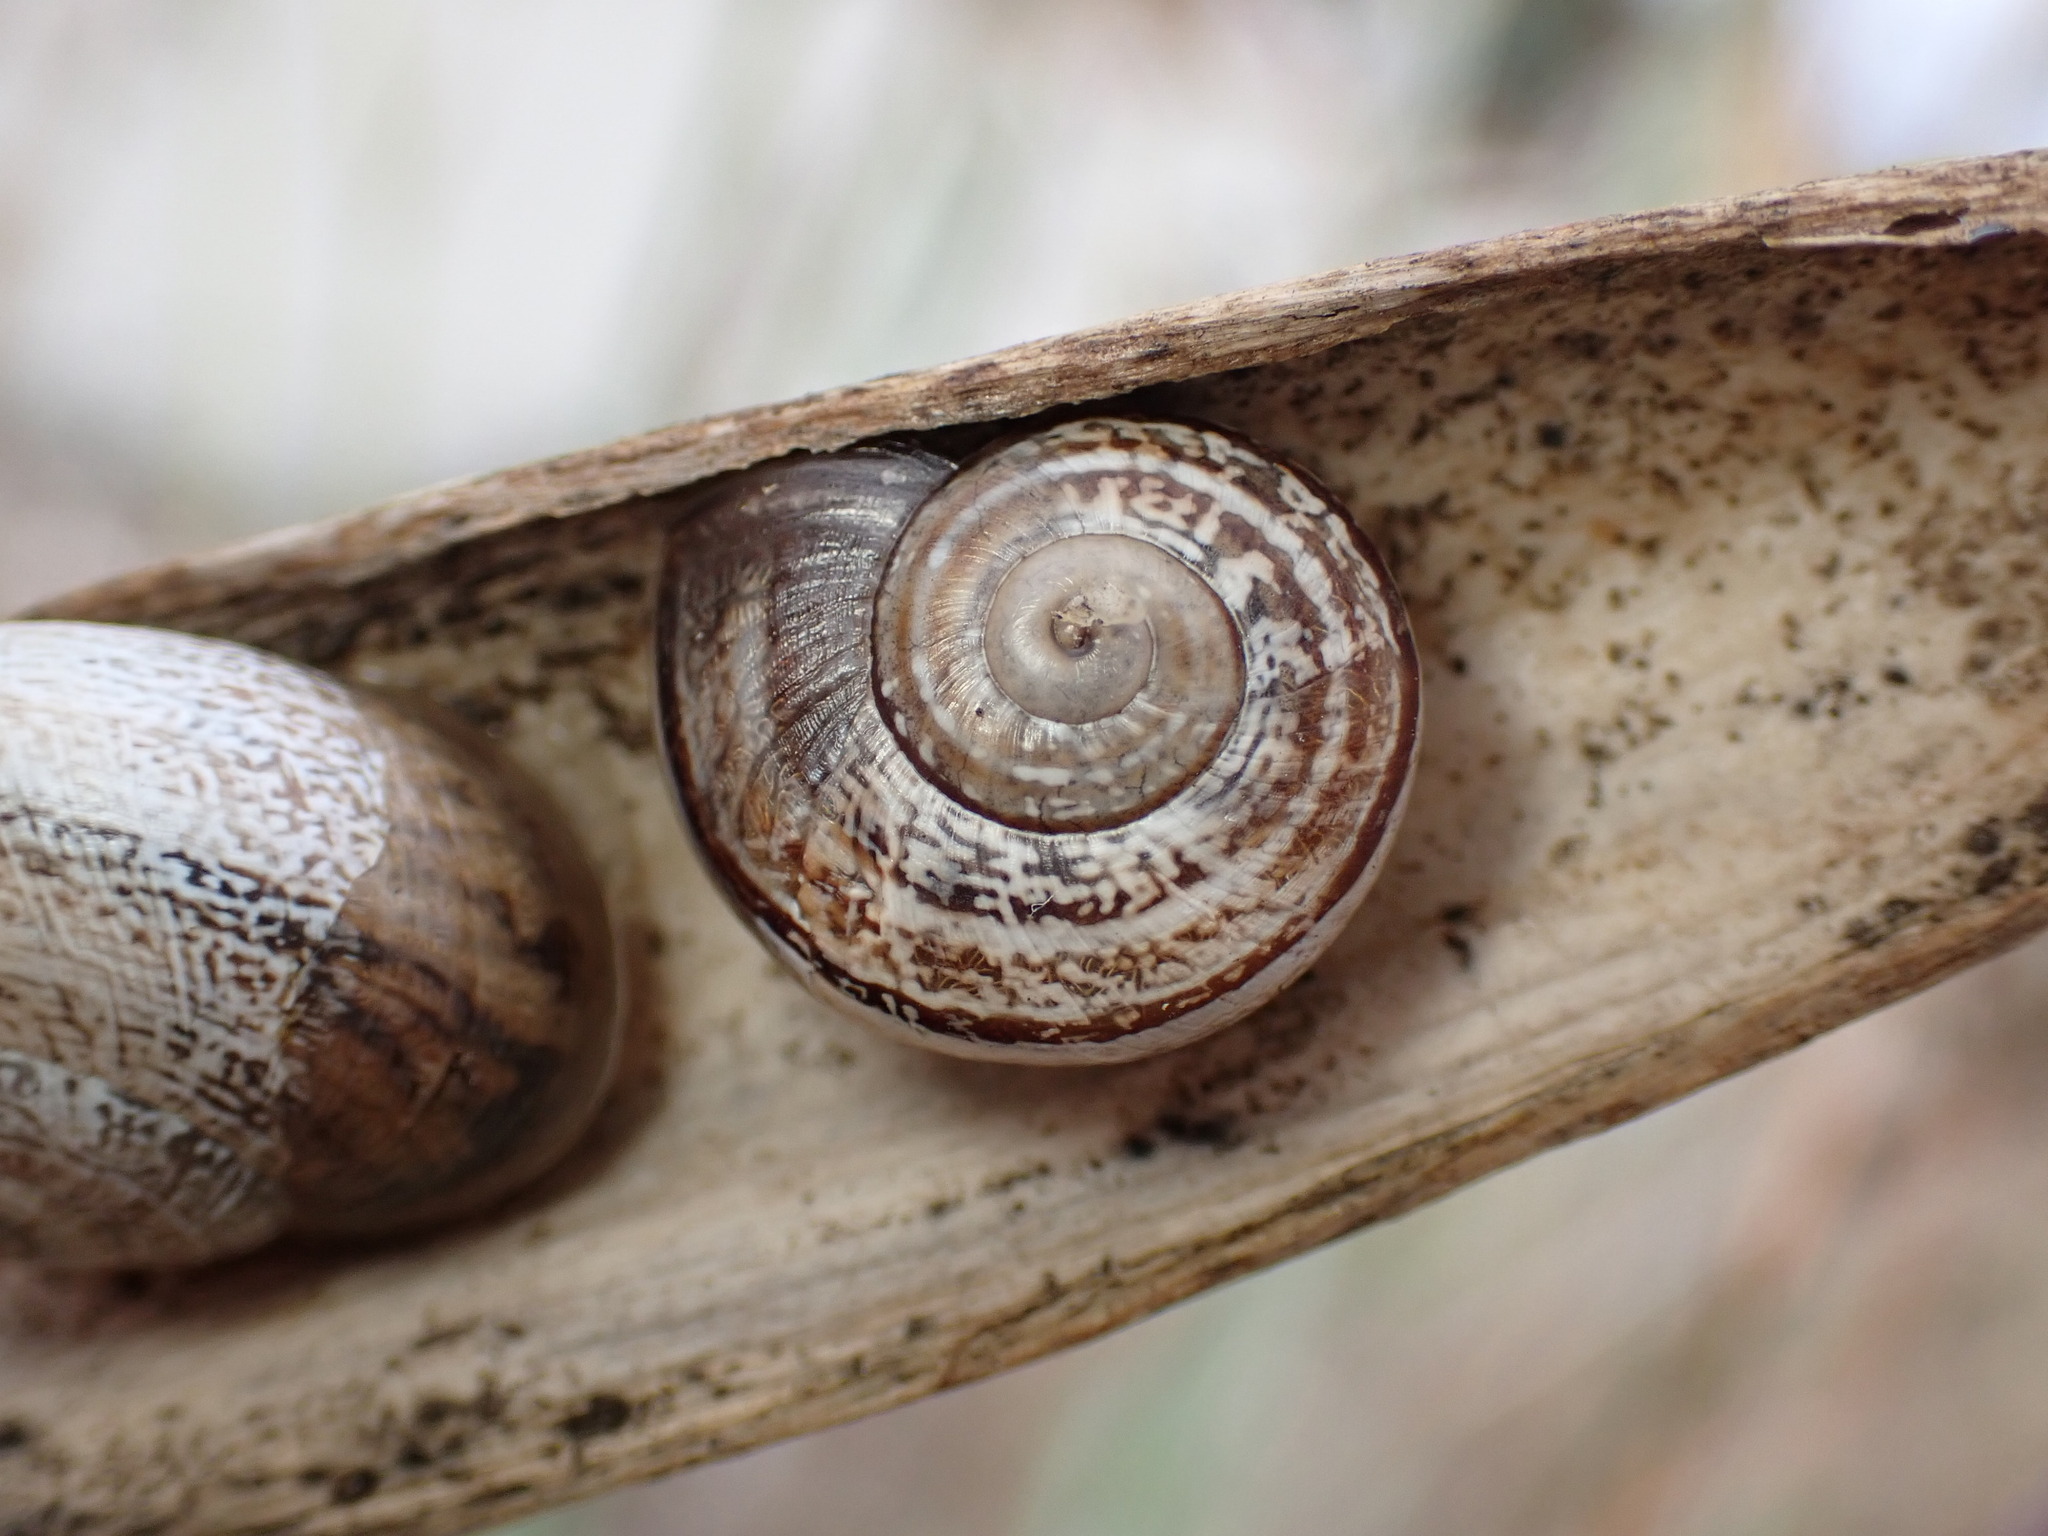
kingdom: Animalia
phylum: Mollusca
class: Gastropoda
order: Stylommatophora
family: Helicidae
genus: Otala
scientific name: Otala lactea
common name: Milk snail
